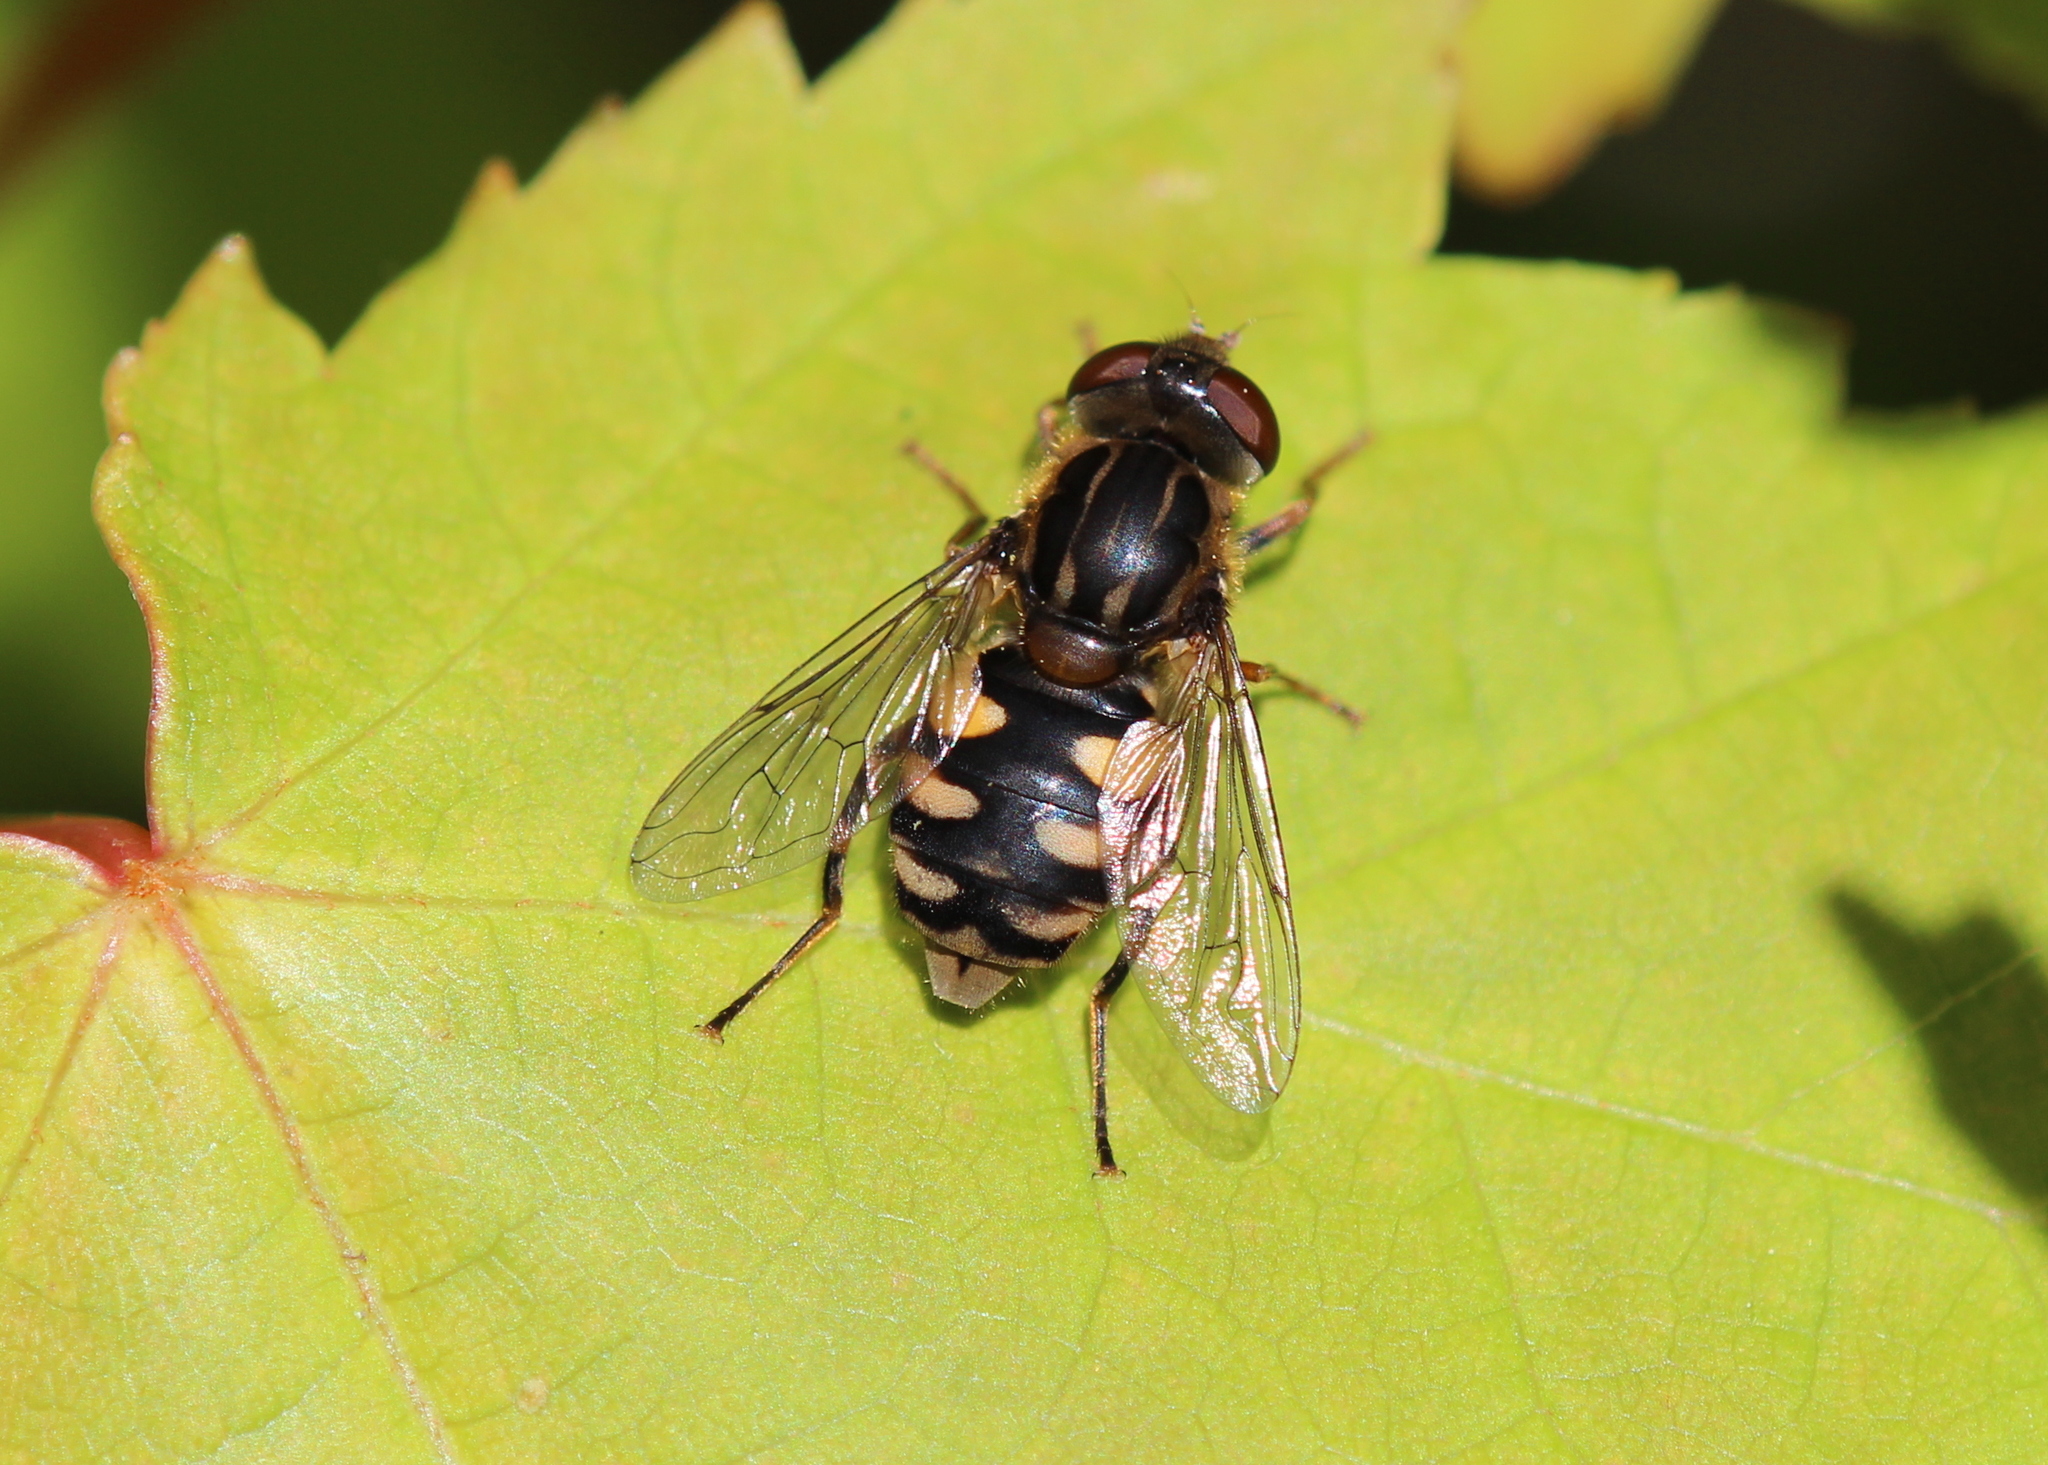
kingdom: Animalia
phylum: Arthropoda
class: Insecta
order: Diptera
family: Syrphidae
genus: Parhelophilus
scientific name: Parhelophilus rex
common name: Dusky bog fly
